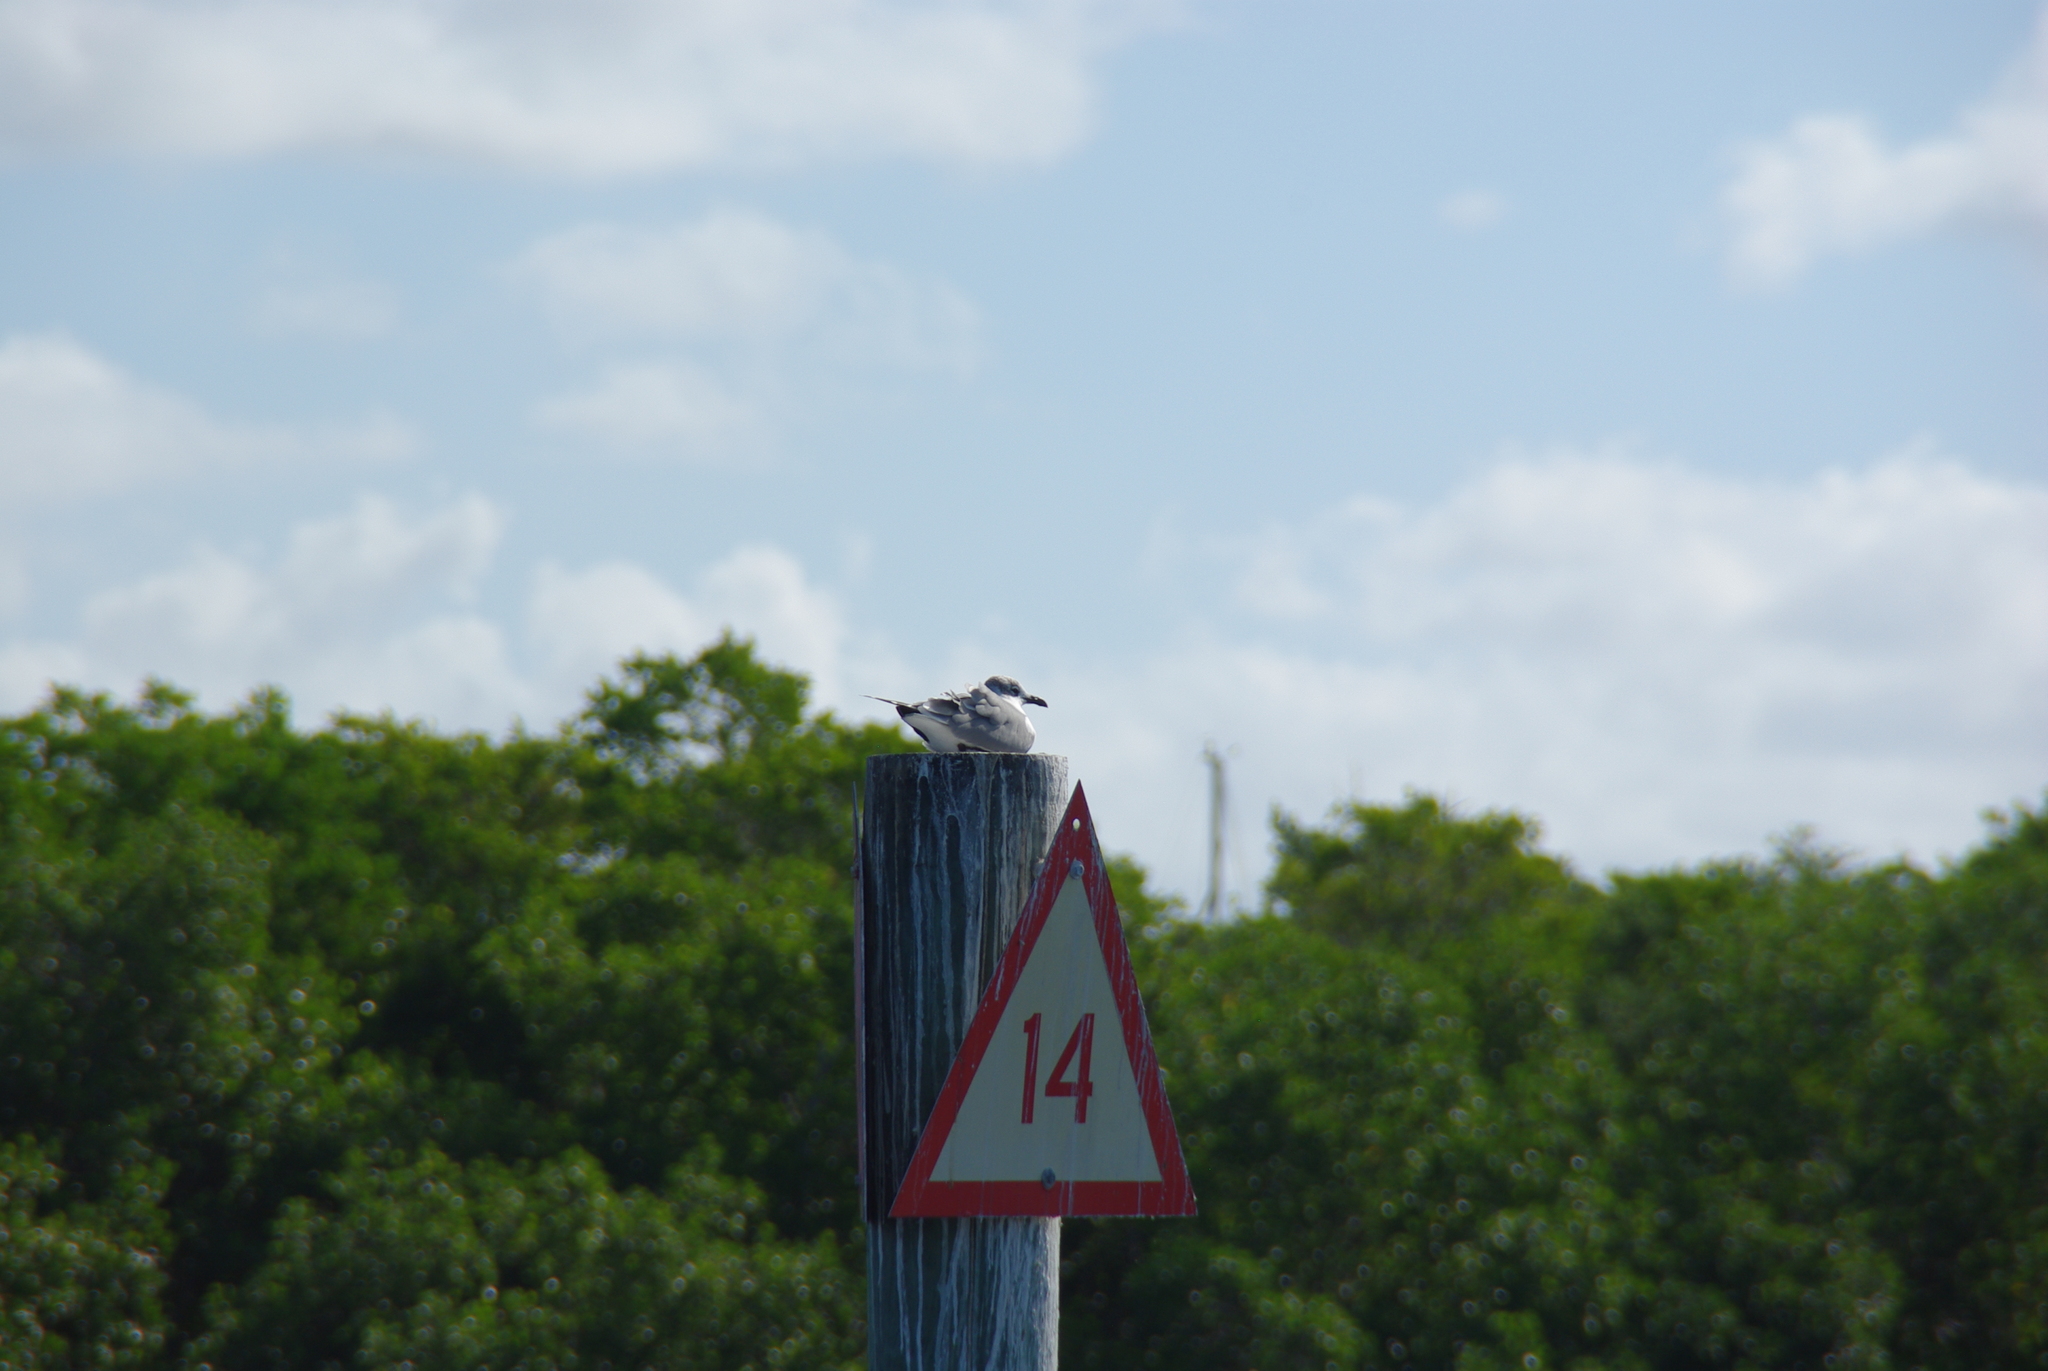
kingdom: Animalia
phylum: Chordata
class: Aves
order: Charadriiformes
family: Laridae
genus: Leucophaeus
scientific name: Leucophaeus atricilla
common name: Laughing gull
